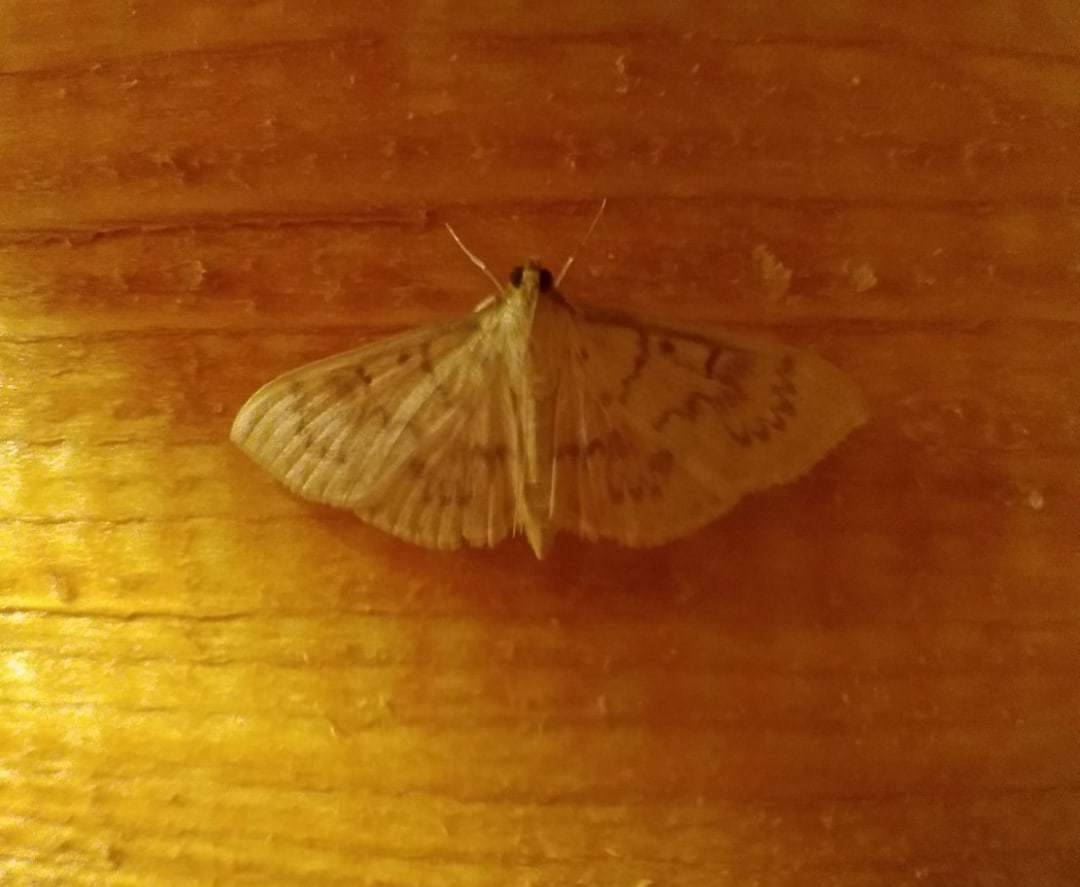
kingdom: Animalia
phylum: Arthropoda
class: Insecta
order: Lepidoptera
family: Crambidae
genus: Patania
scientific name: Patania ruralis
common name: Mother of pearl
